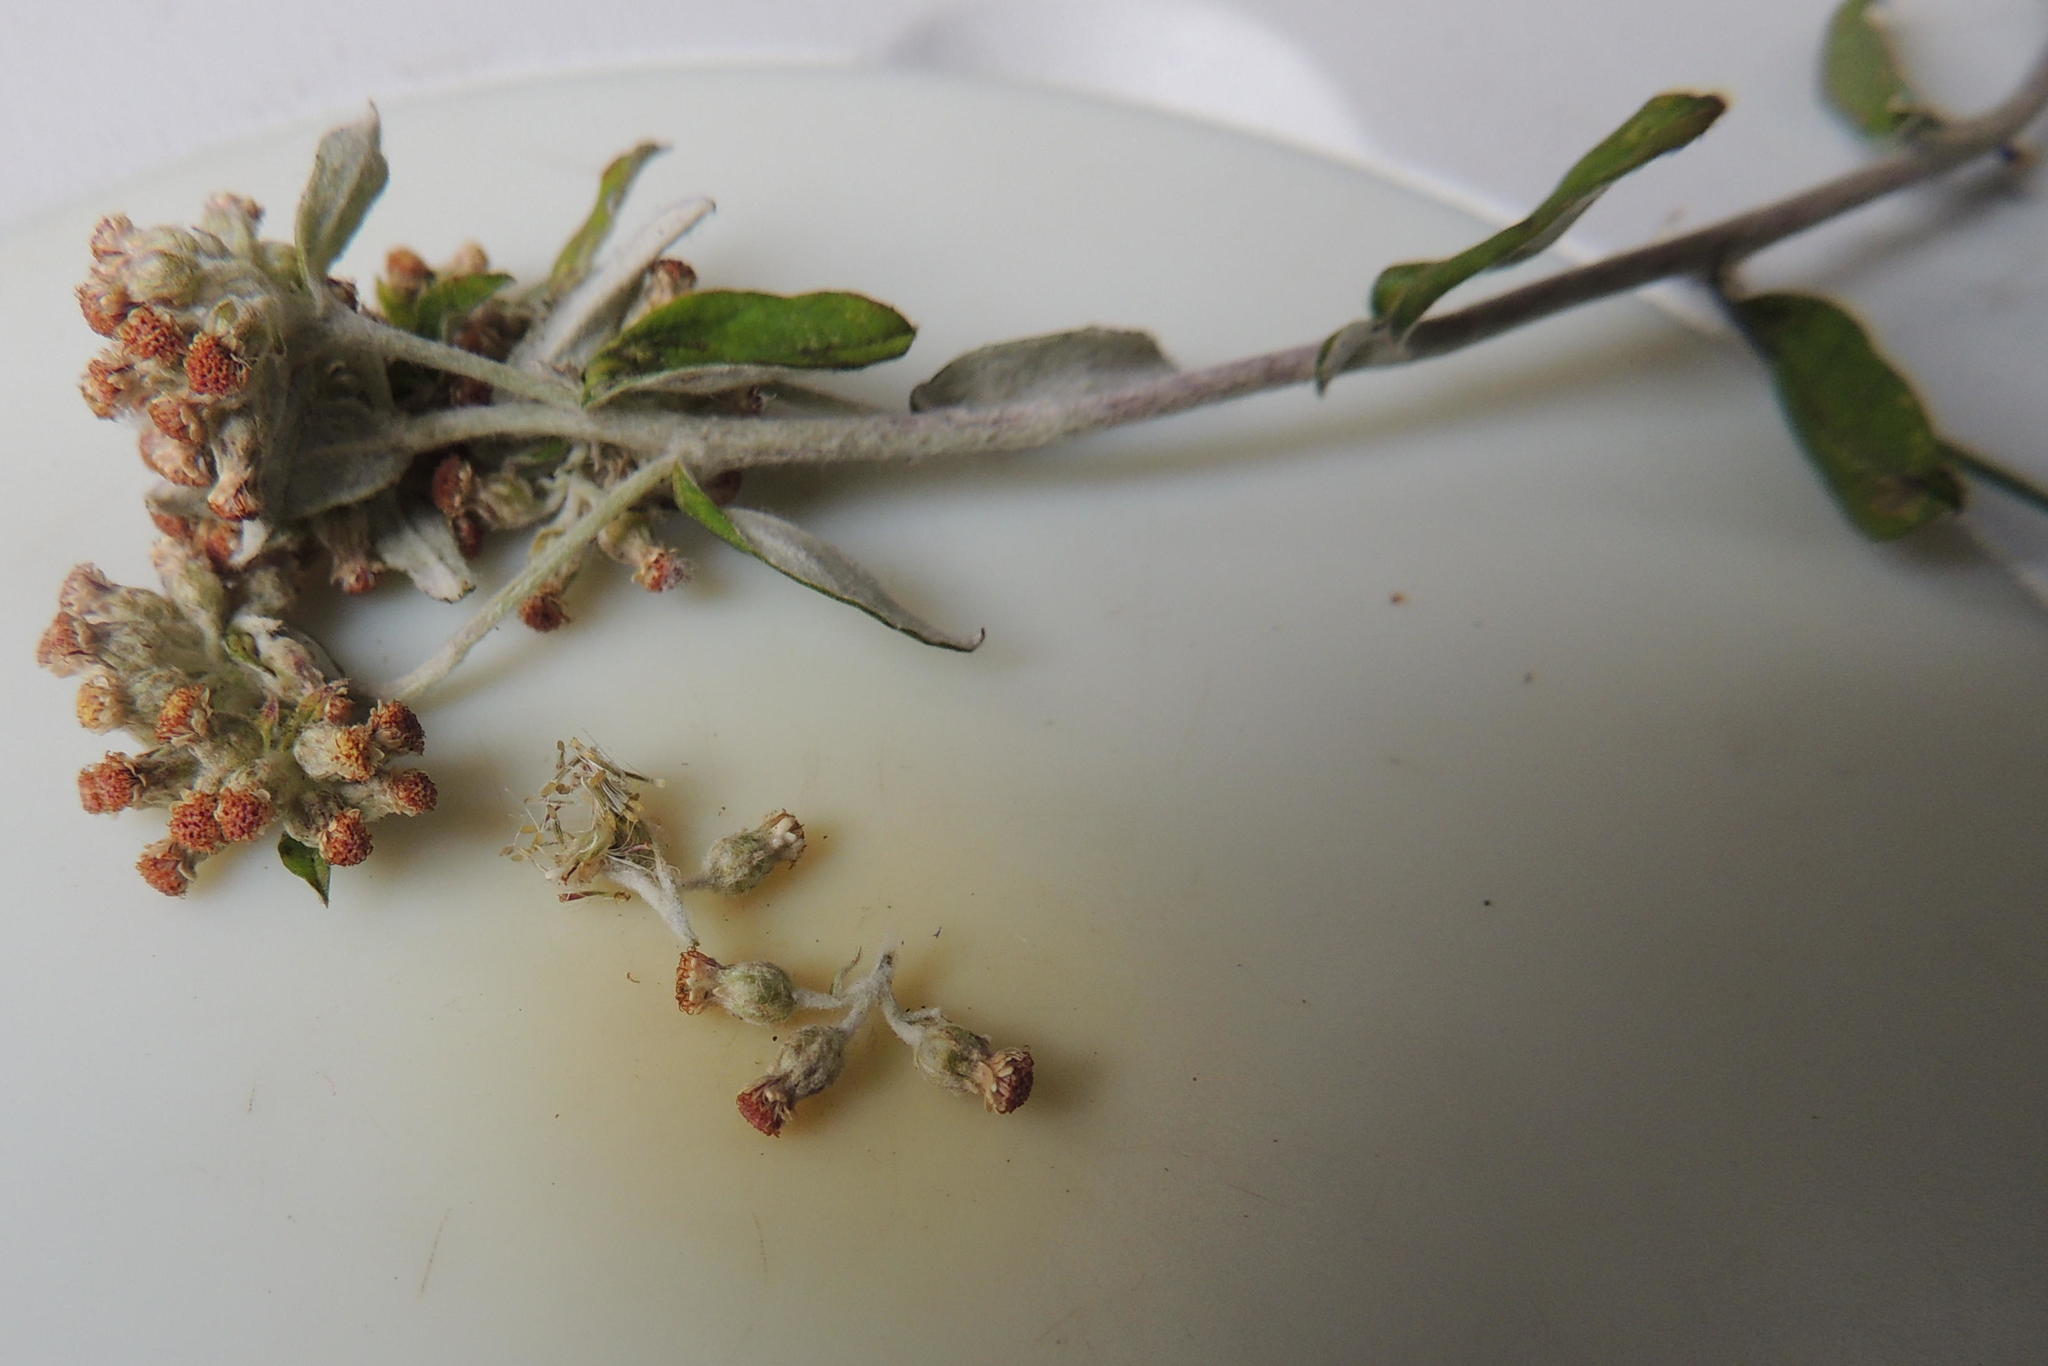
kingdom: Plantae
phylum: Tracheophyta
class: Magnoliopsida
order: Asterales
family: Asteraceae
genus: Plecostachys
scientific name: Plecostachys polifolia
